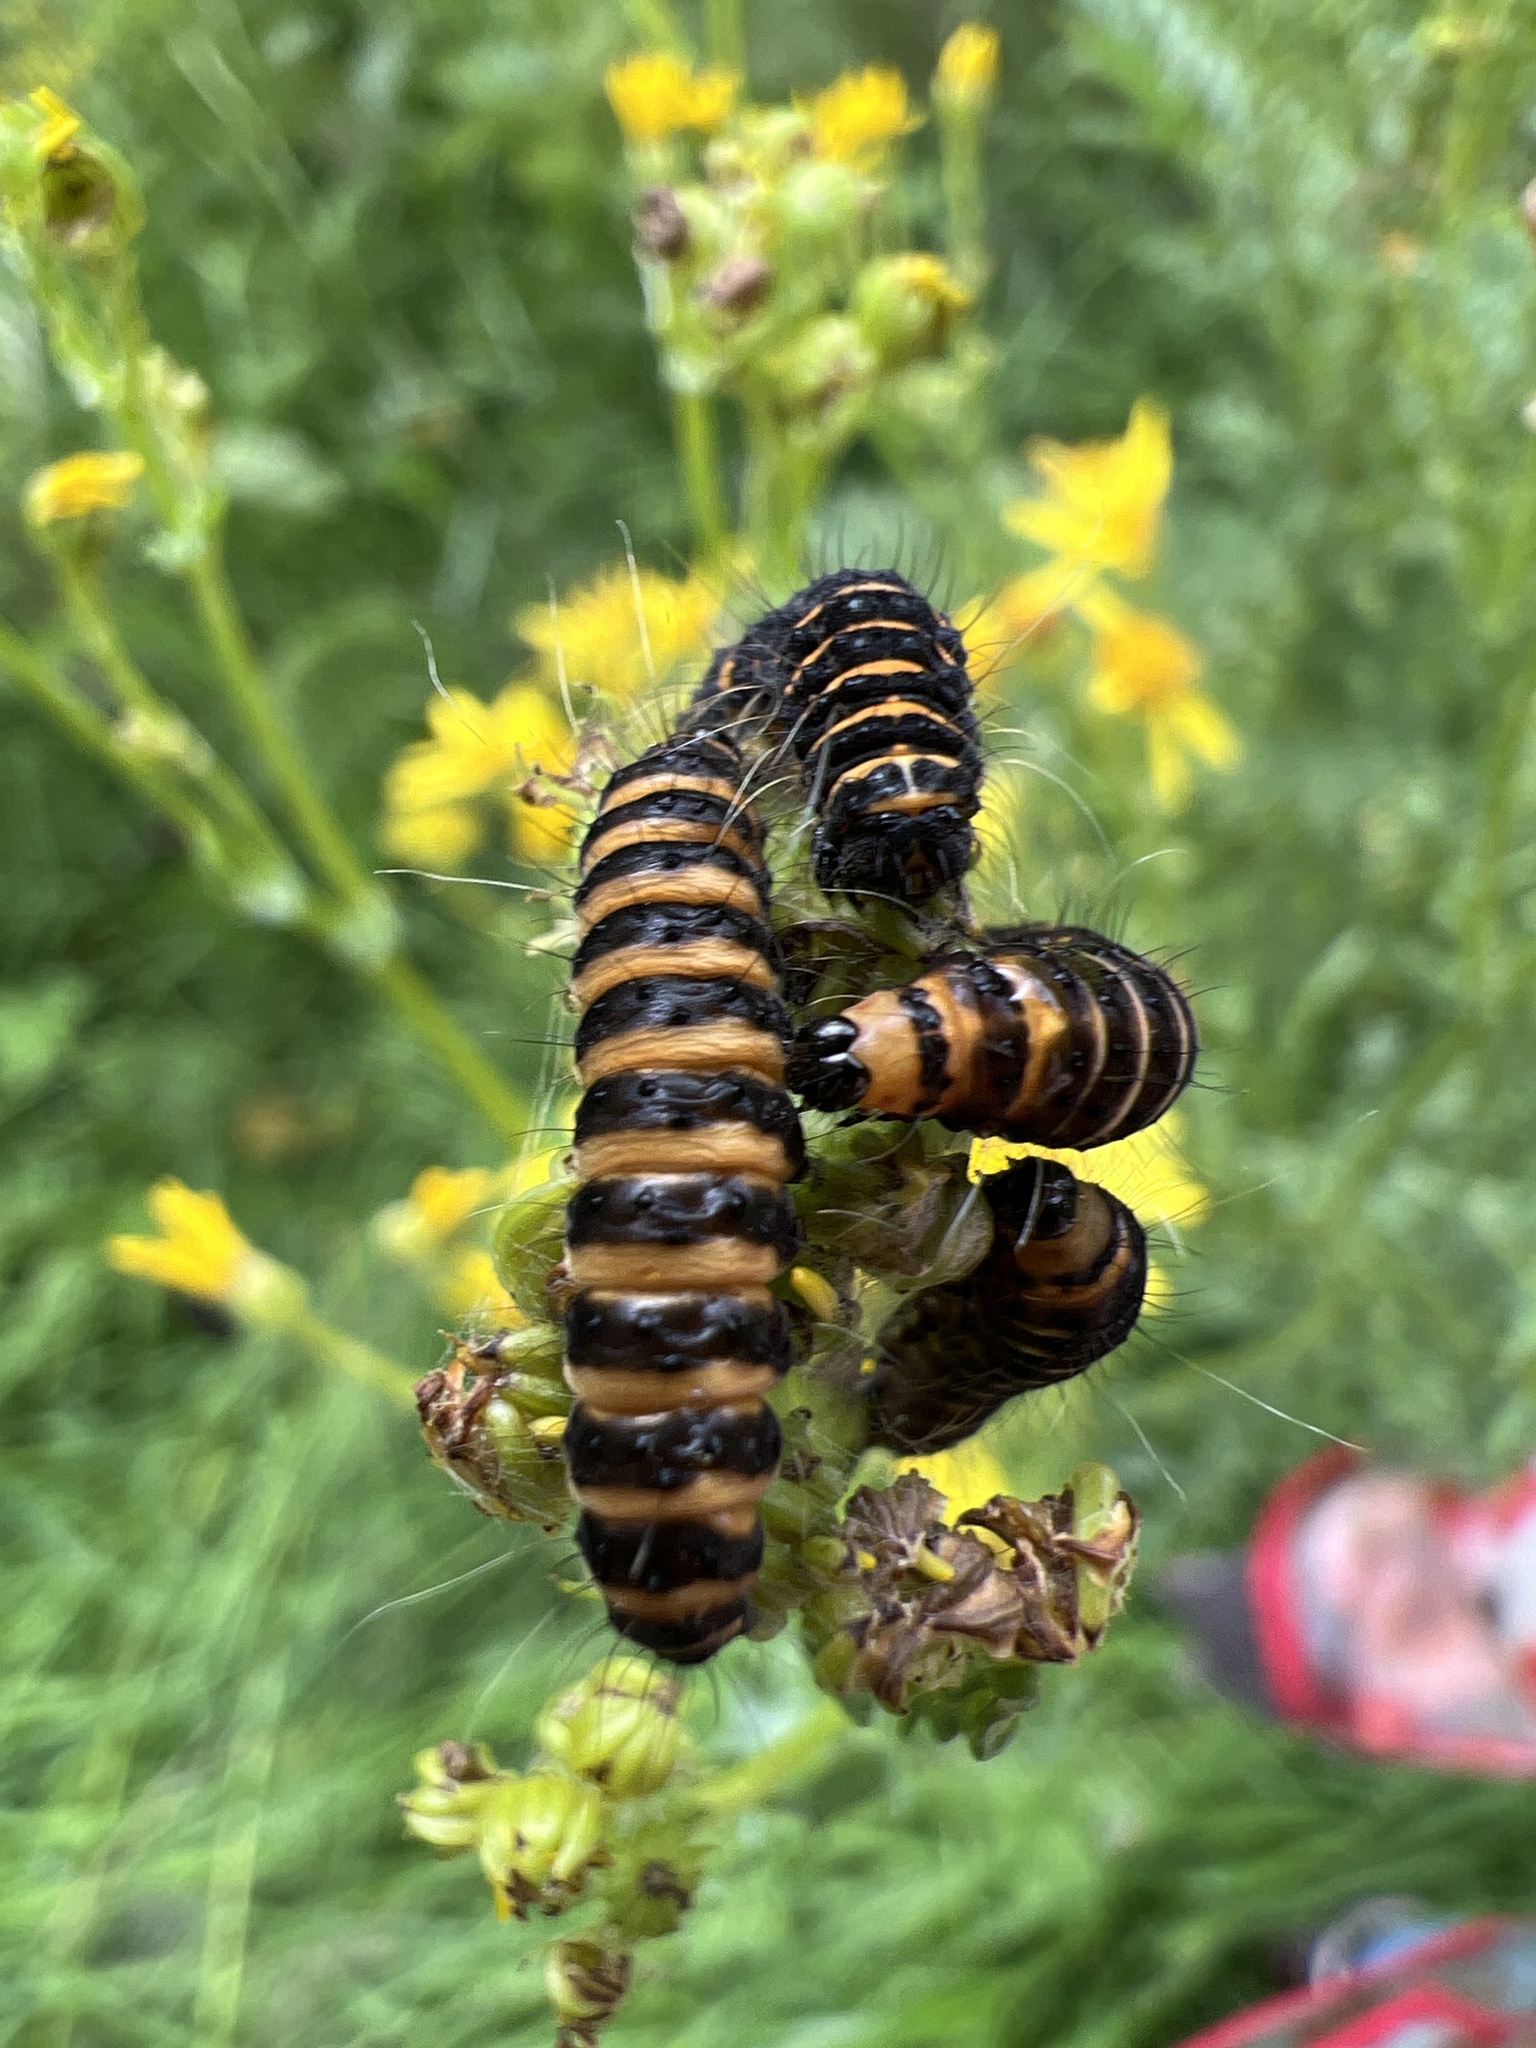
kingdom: Animalia
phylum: Arthropoda
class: Insecta
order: Lepidoptera
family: Erebidae
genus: Tyria
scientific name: Tyria jacobaeae
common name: Cinnabar
